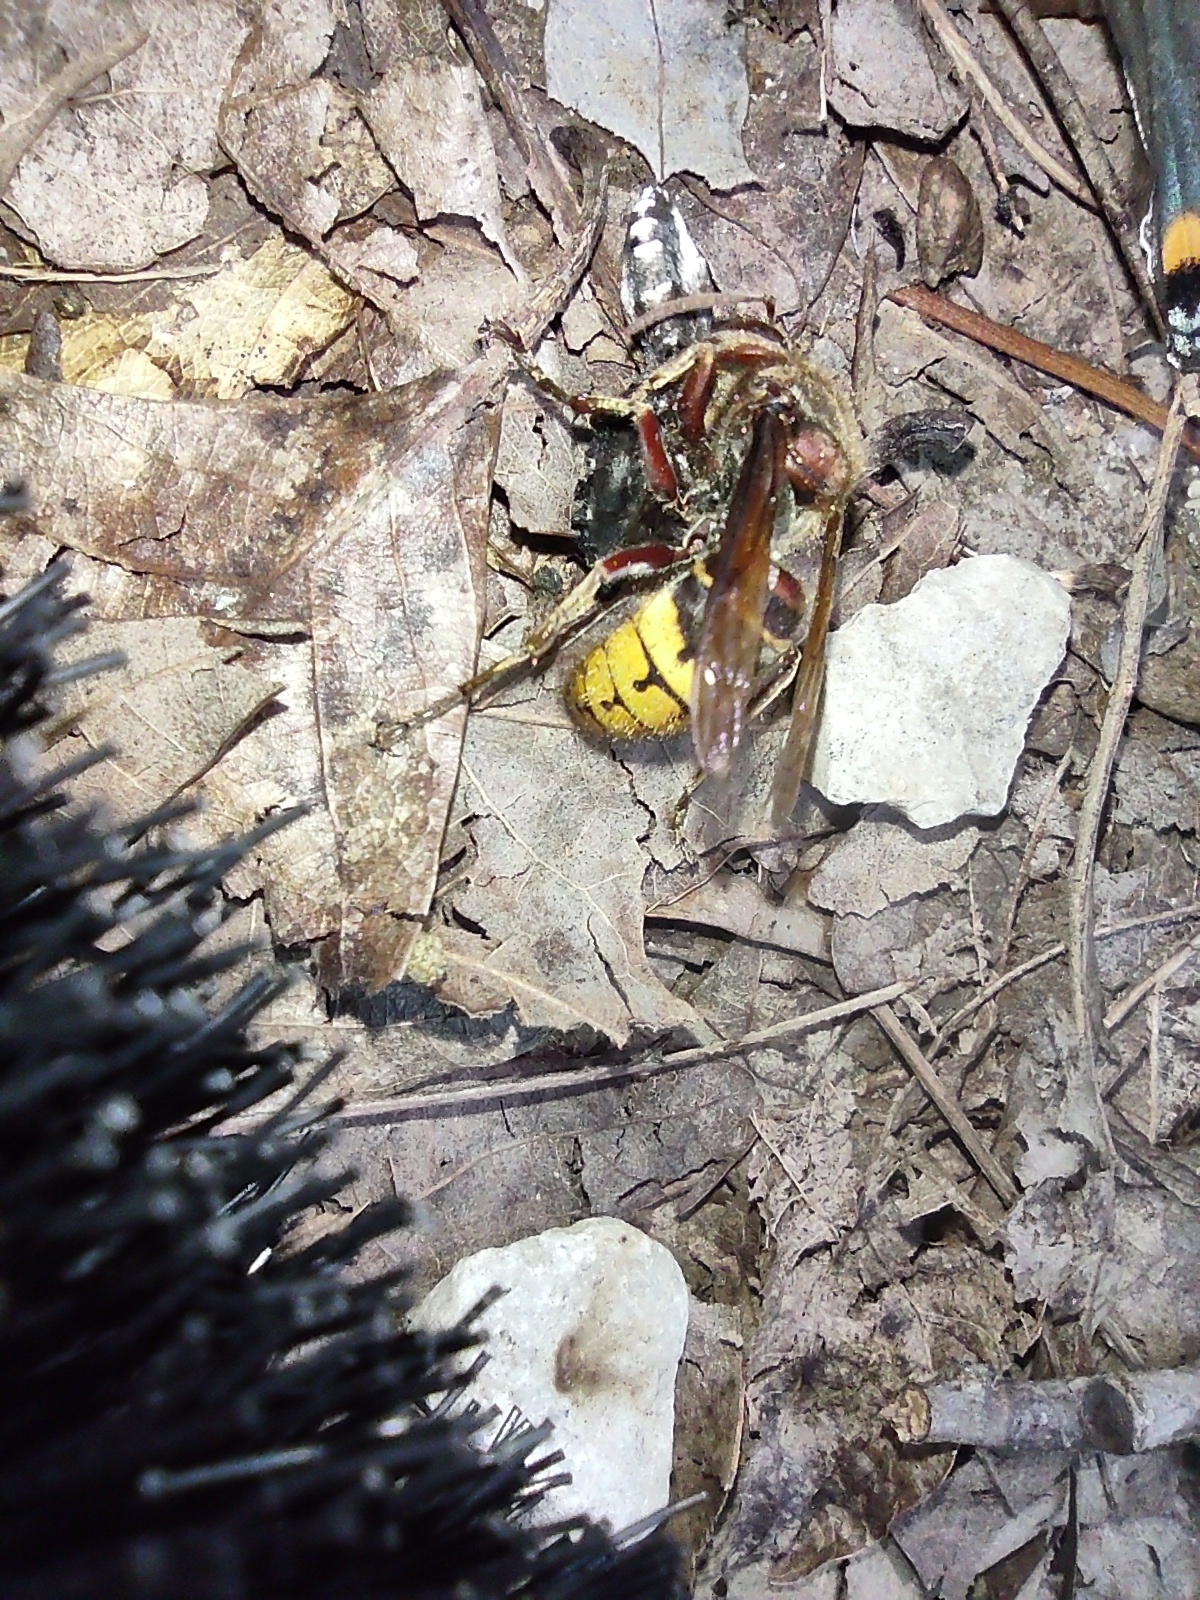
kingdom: Animalia
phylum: Arthropoda
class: Insecta
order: Hymenoptera
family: Vespidae
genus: Vespa
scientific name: Vespa crabro
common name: Hornet
